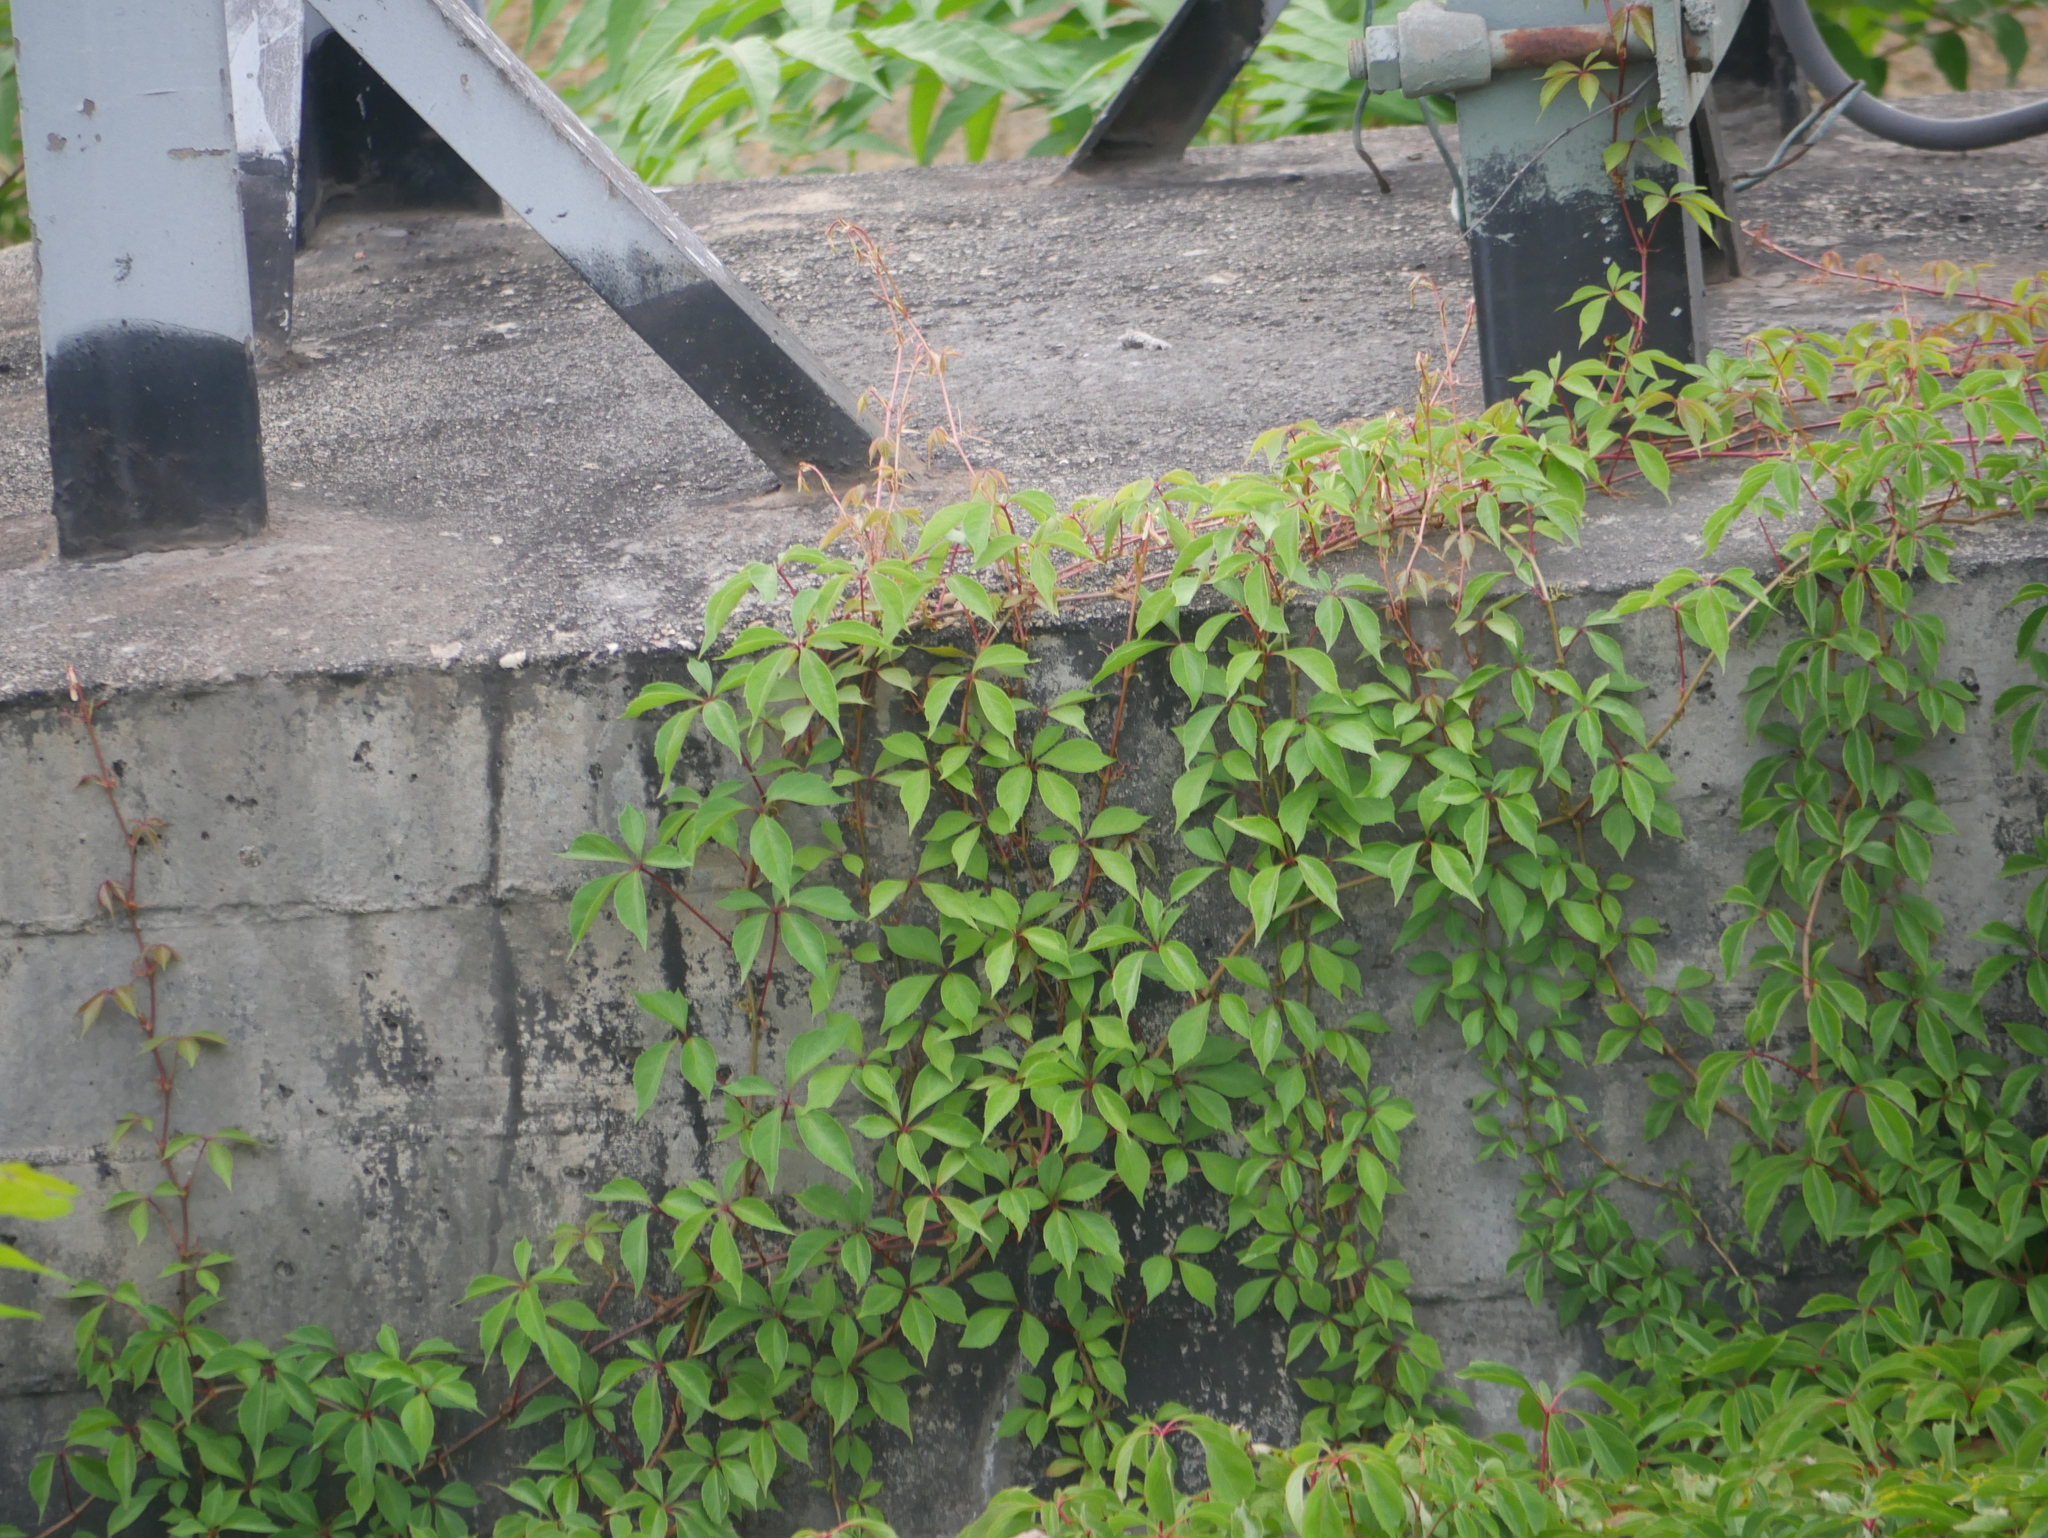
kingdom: Plantae
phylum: Tracheophyta
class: Magnoliopsida
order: Vitales
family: Vitaceae
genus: Parthenocissus
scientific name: Parthenocissus quinquefolia
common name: Virginia-creeper
